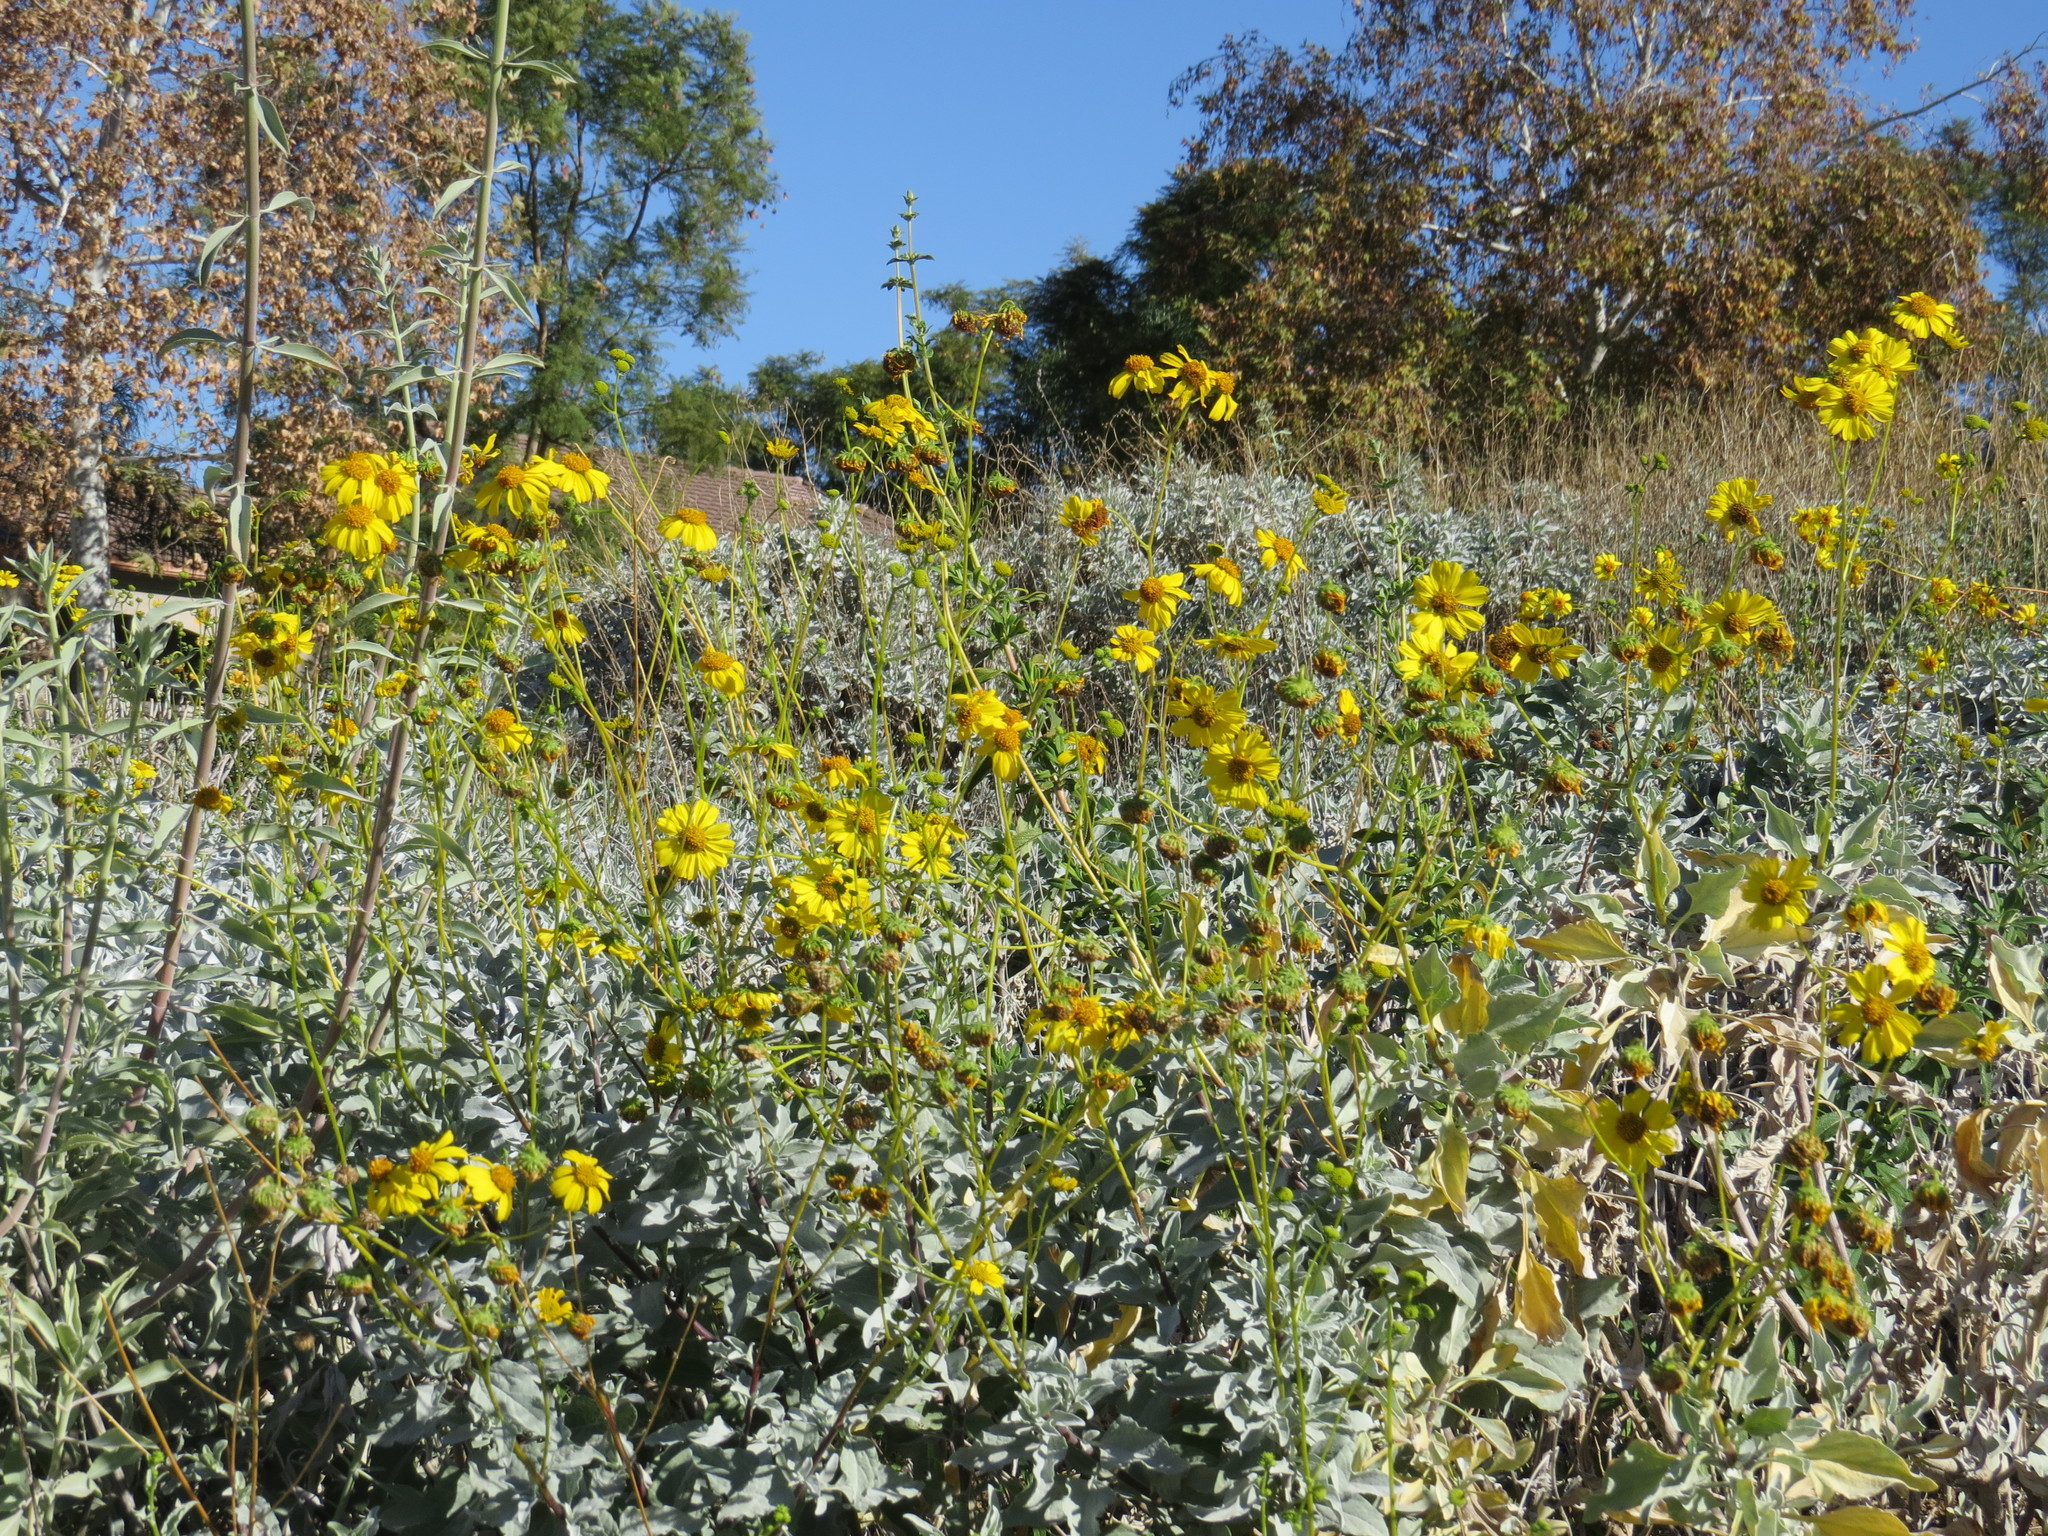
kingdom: Plantae
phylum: Tracheophyta
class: Magnoliopsida
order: Asterales
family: Asteraceae
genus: Encelia
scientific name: Encelia farinosa
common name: Brittlebush
